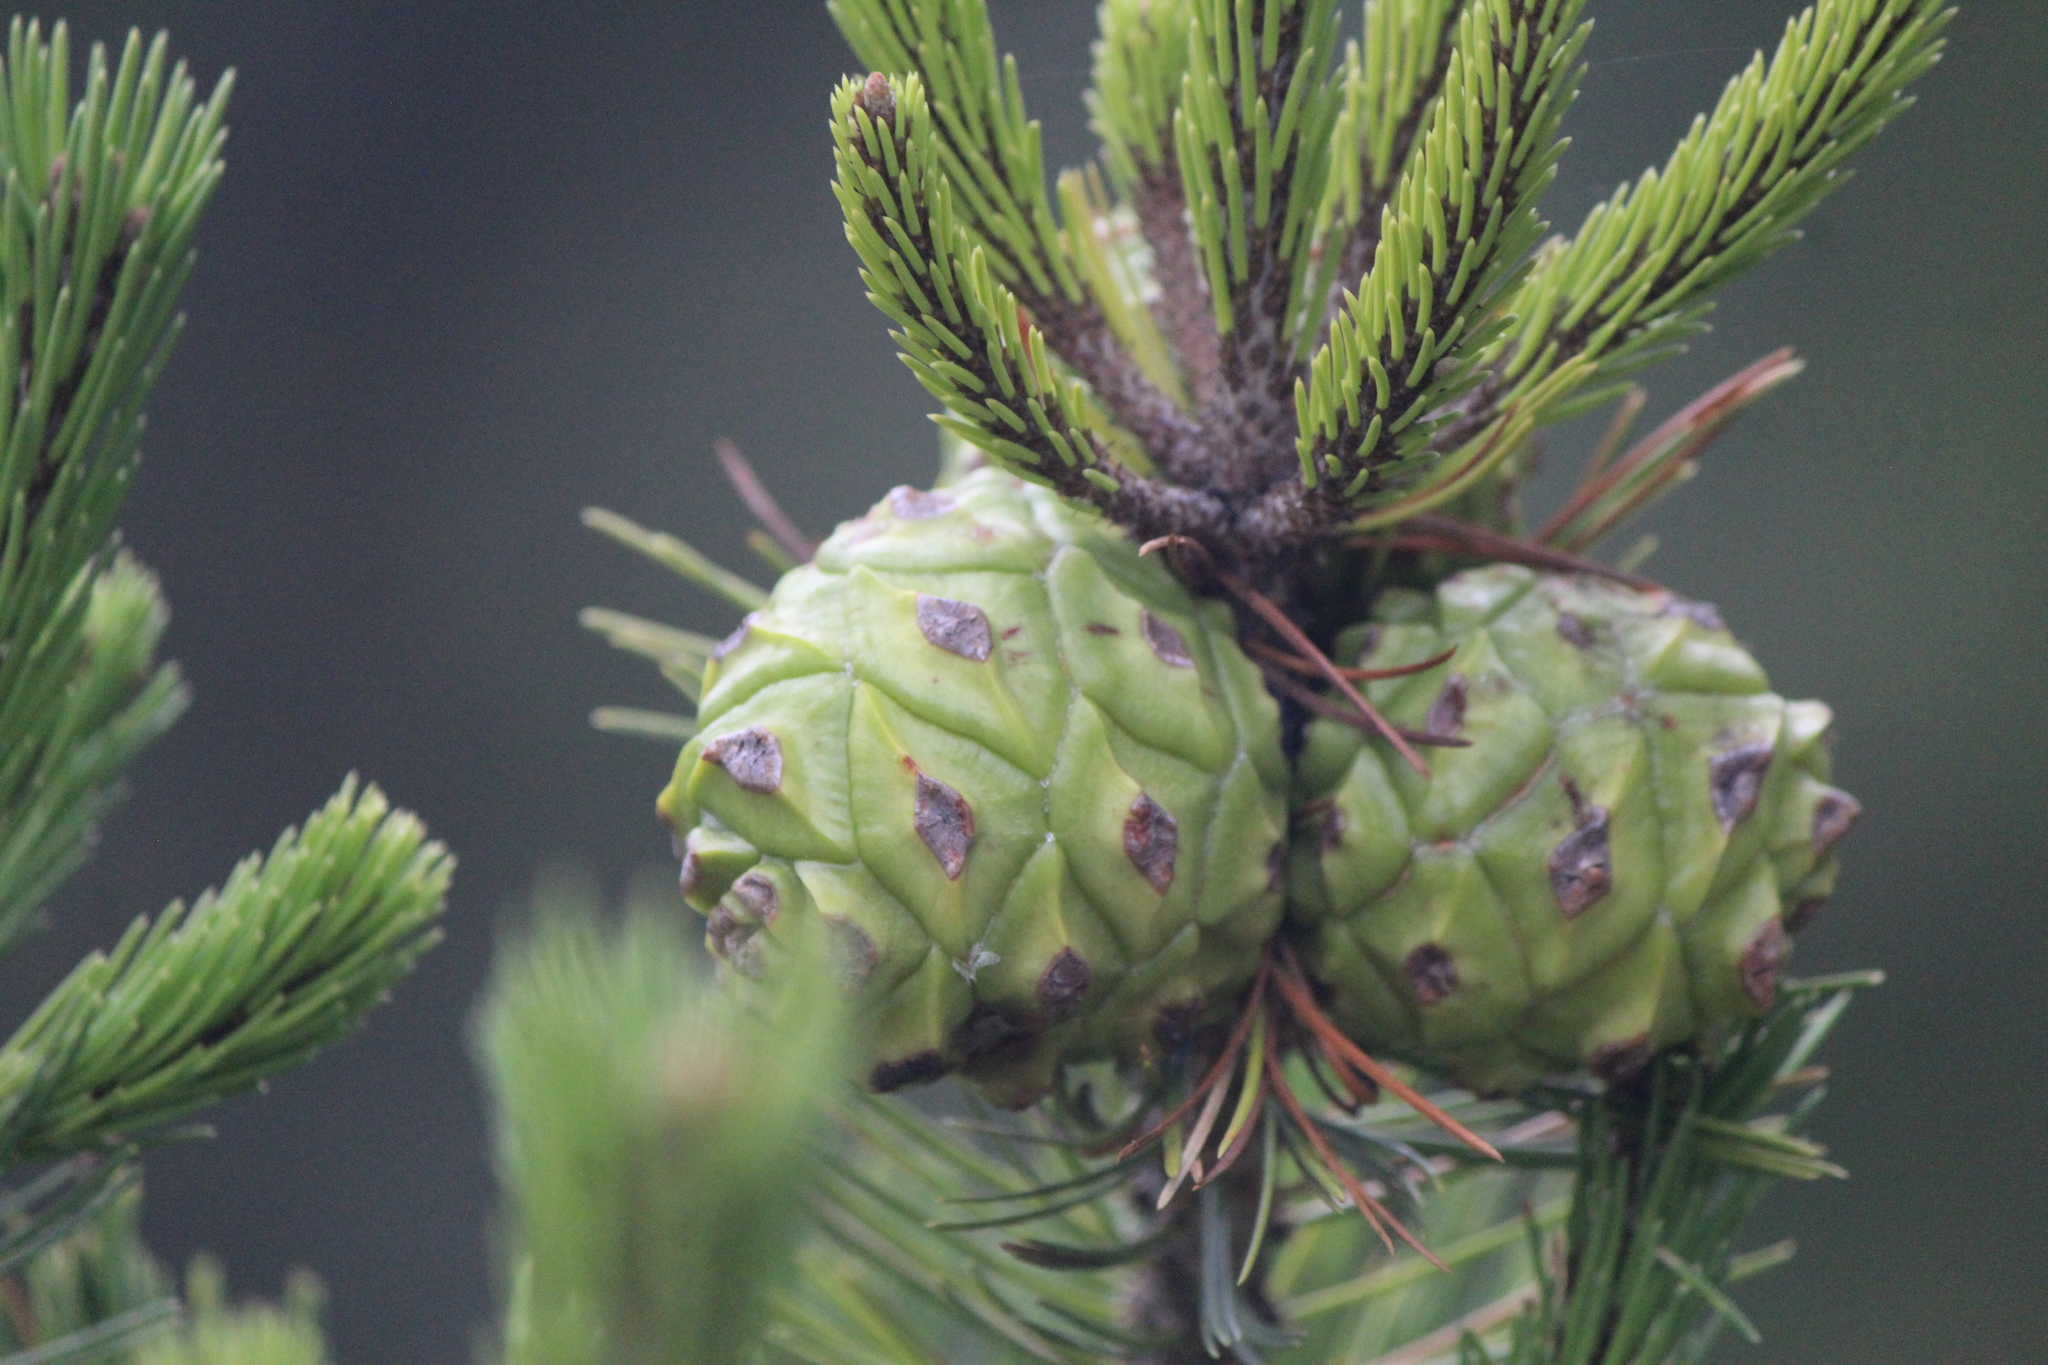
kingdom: Plantae
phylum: Tracheophyta
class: Pinopsida
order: Pinales
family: Pinaceae
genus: Pinus
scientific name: Pinus cembroides
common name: Mexican nut pine
